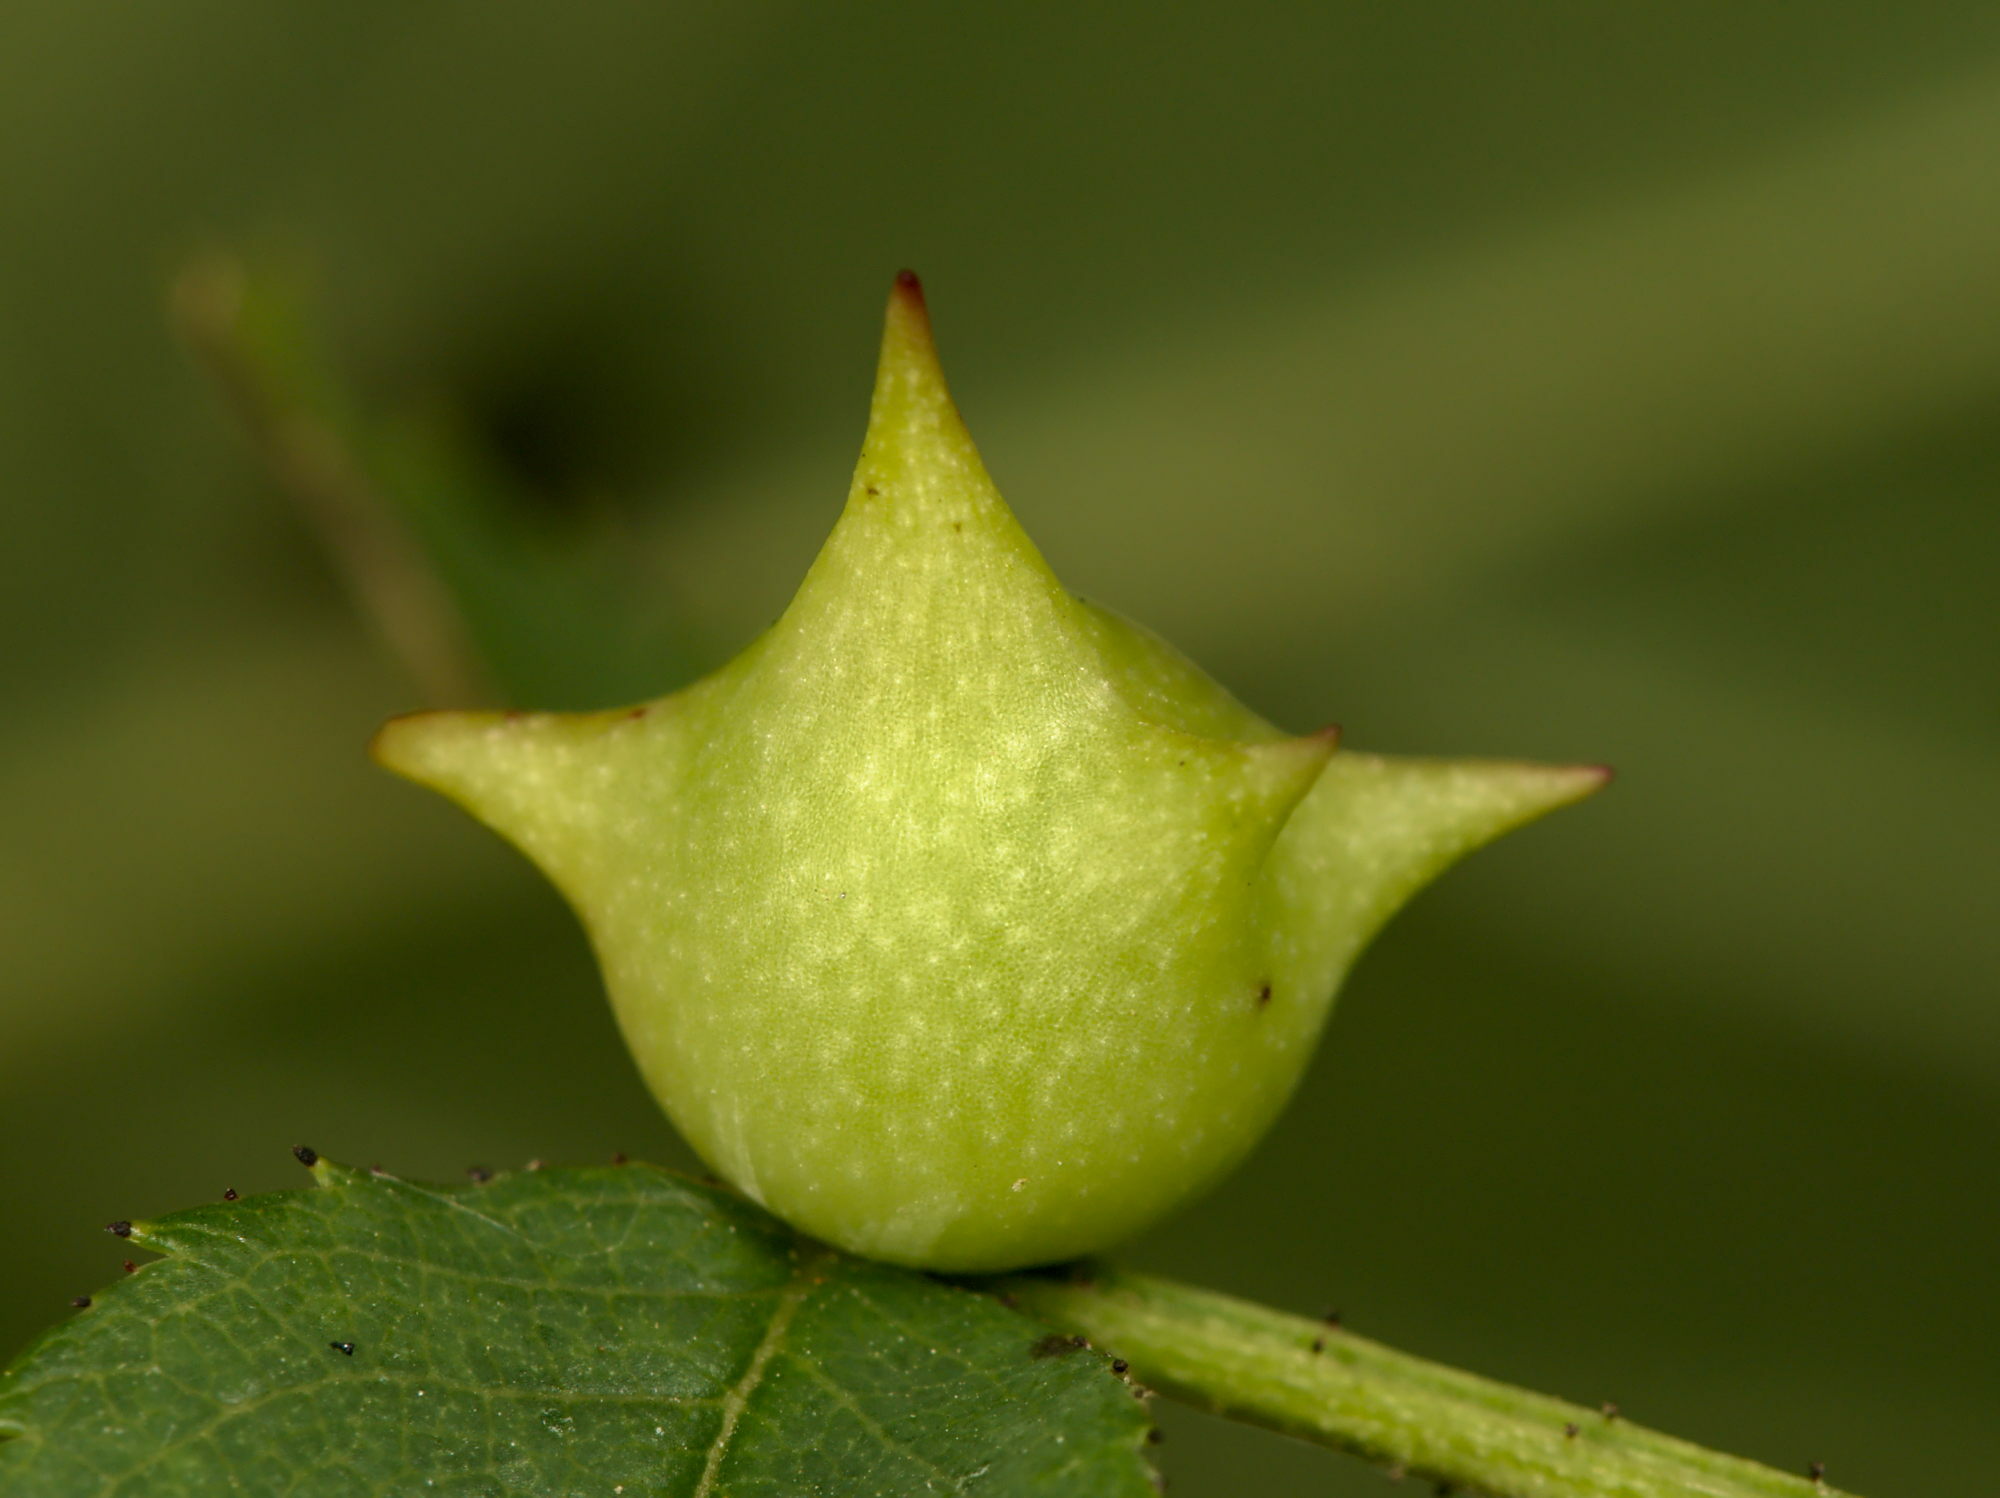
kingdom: Animalia
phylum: Arthropoda
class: Insecta
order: Hymenoptera
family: Cynipidae
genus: Diplolepis
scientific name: Diplolepis nervosa
